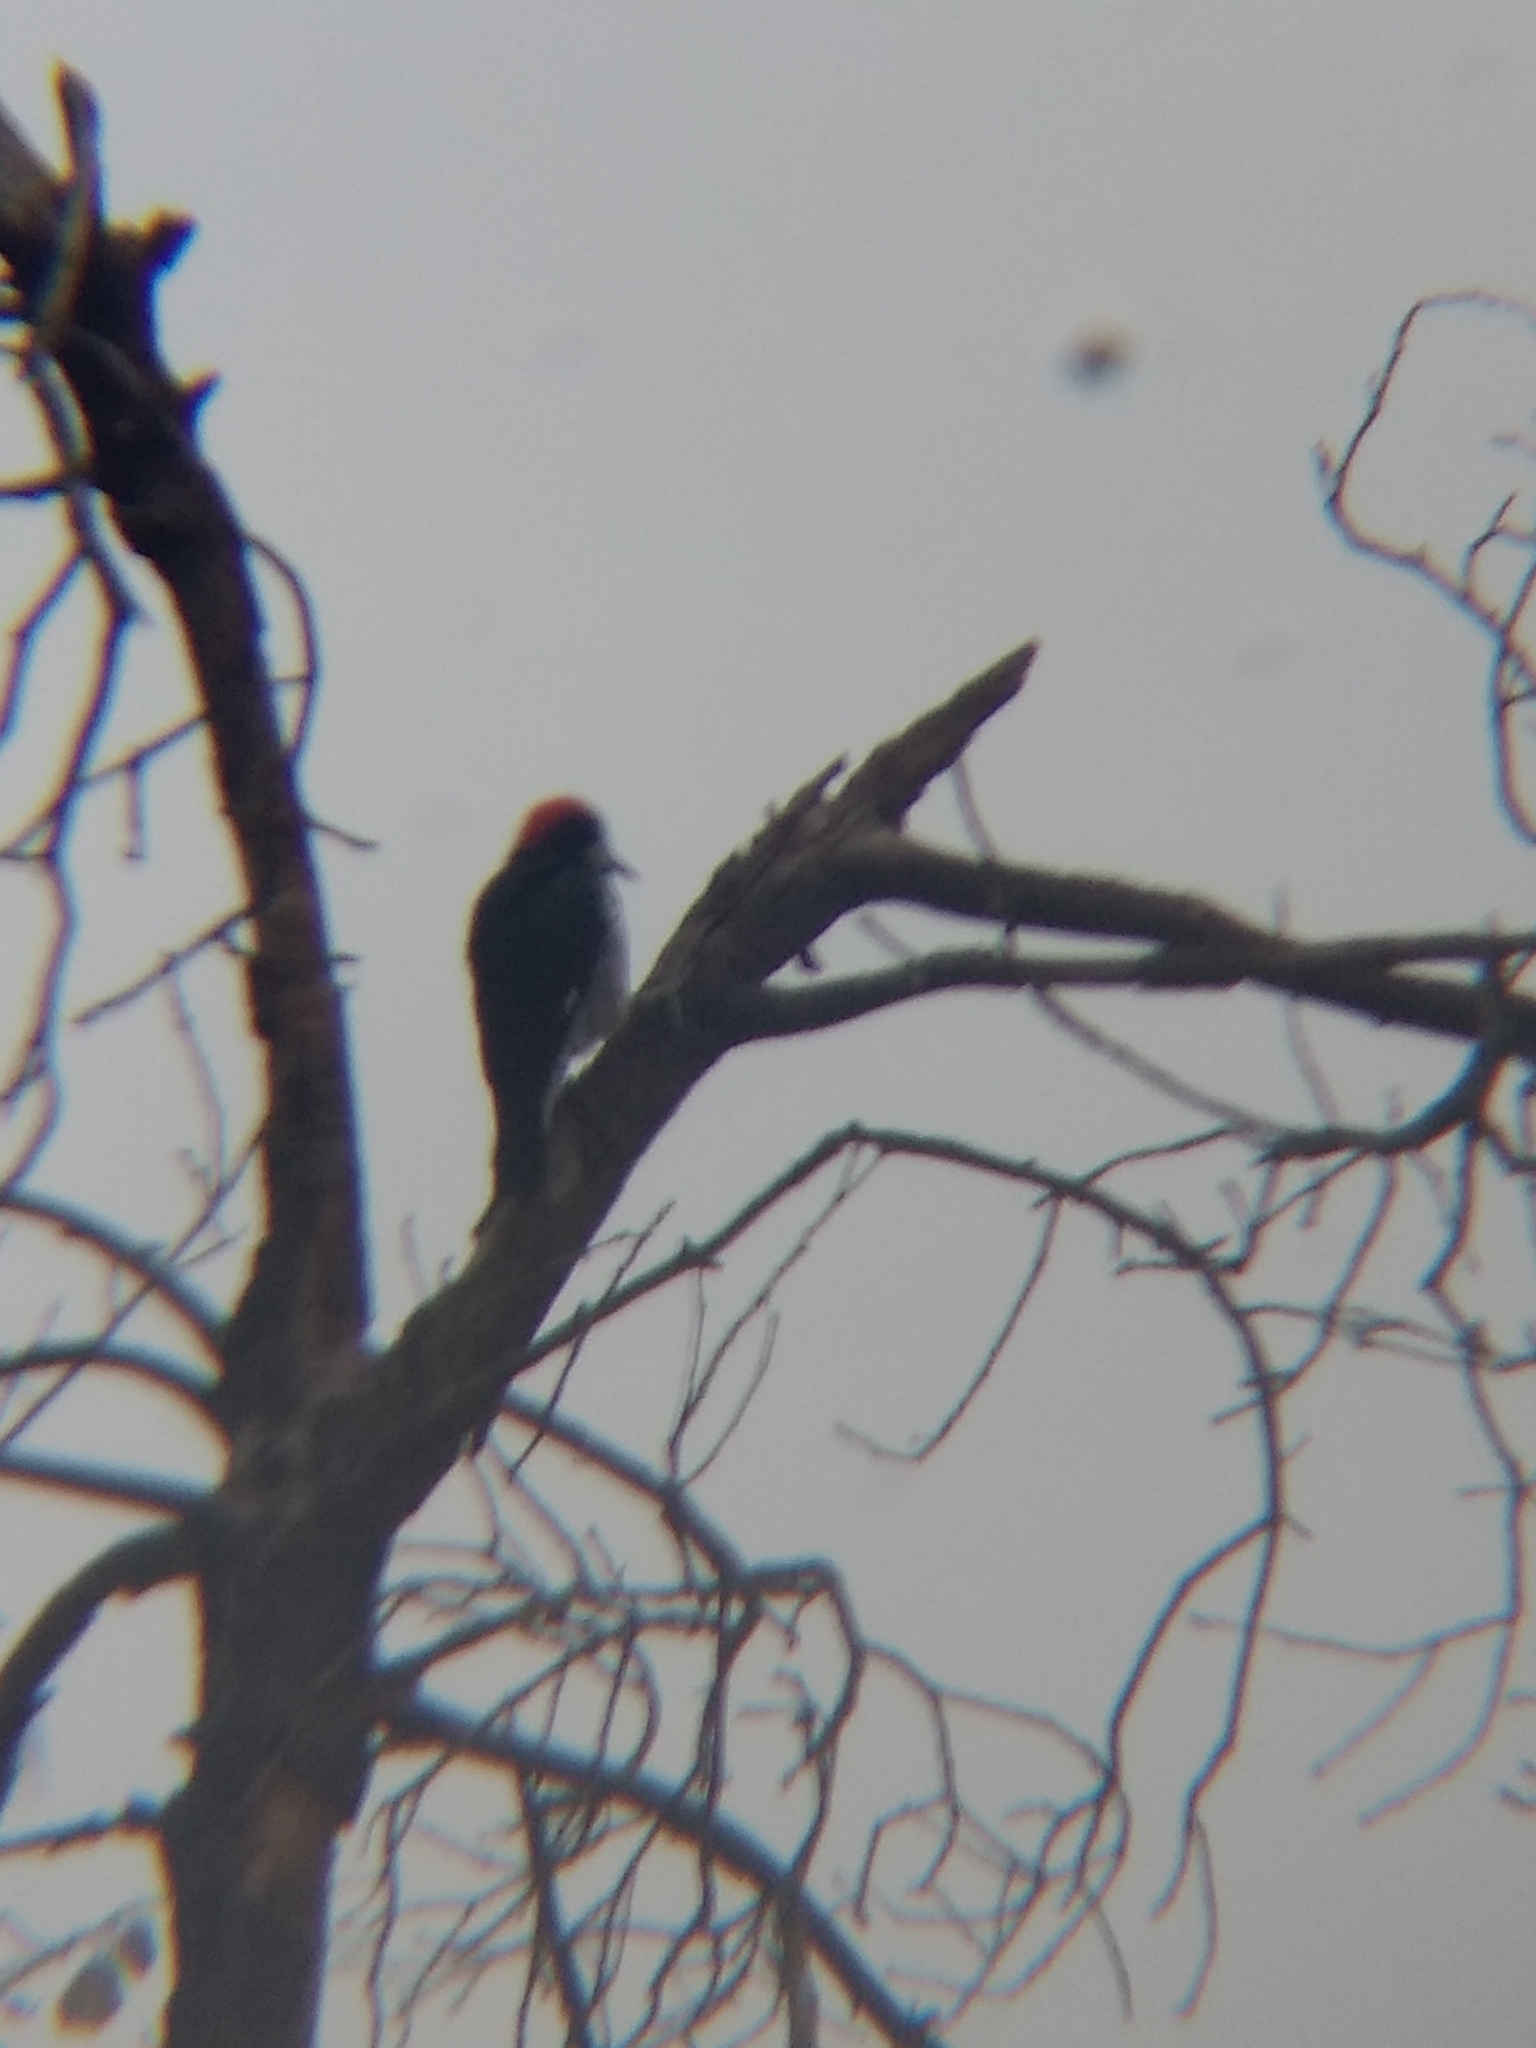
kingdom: Animalia
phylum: Chordata
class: Aves
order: Piciformes
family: Picidae
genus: Melanerpes
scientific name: Melanerpes formicivorus
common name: Acorn woodpecker
